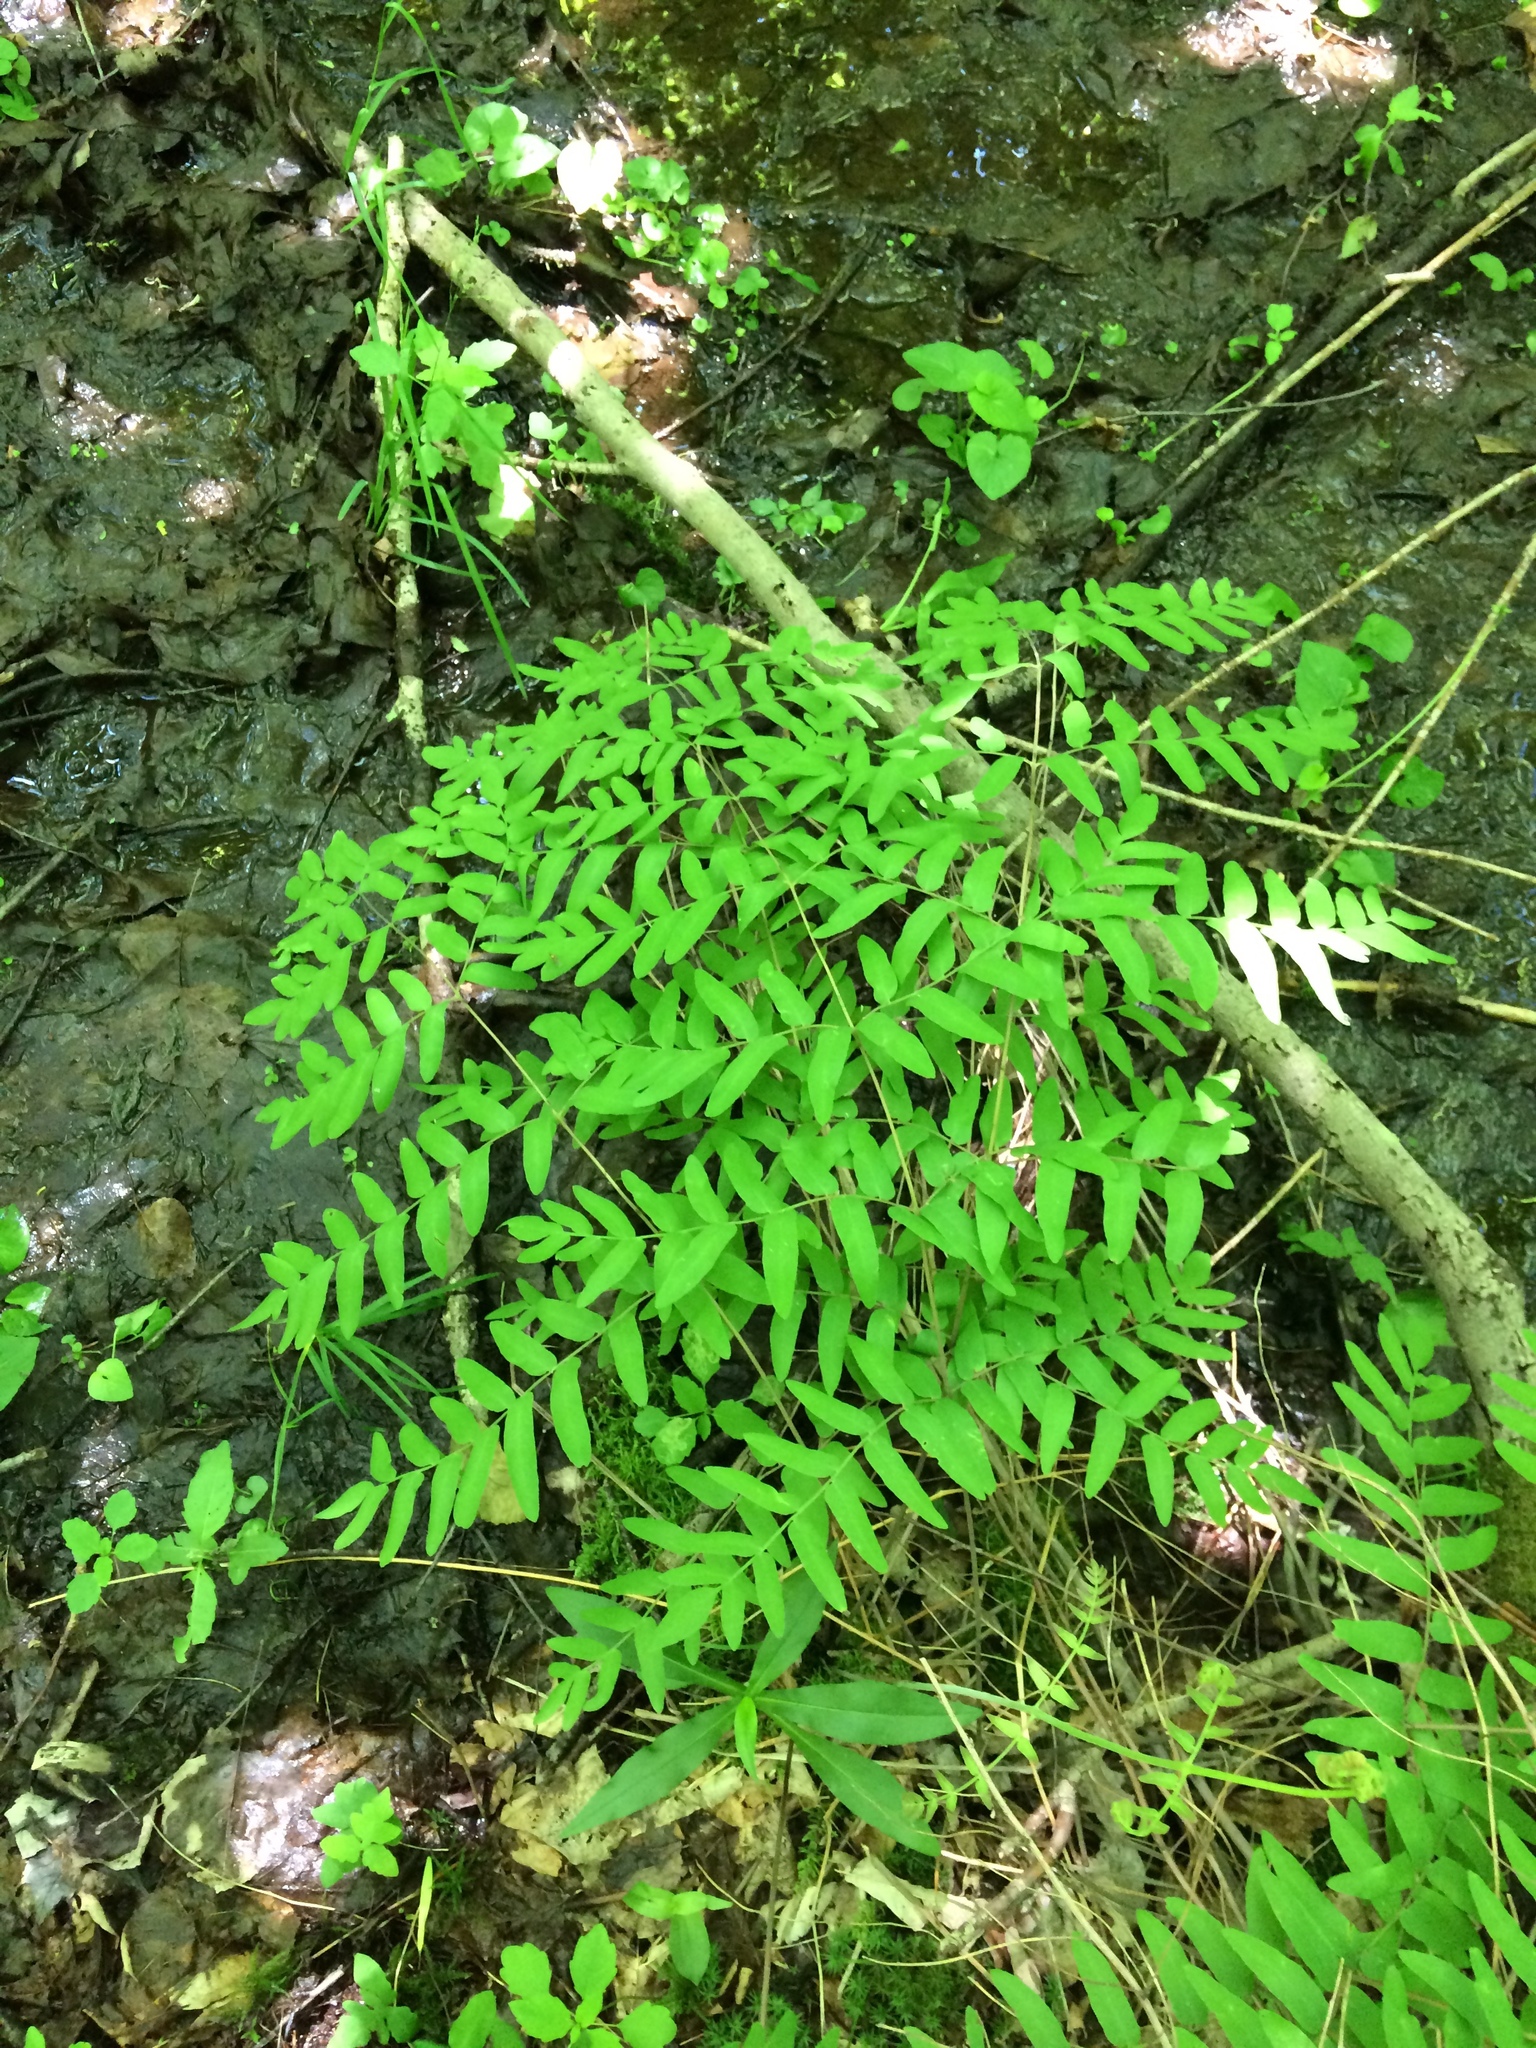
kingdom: Plantae
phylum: Tracheophyta
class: Polypodiopsida
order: Osmundales
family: Osmundaceae
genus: Osmunda
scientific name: Osmunda spectabilis
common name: American royal fern
